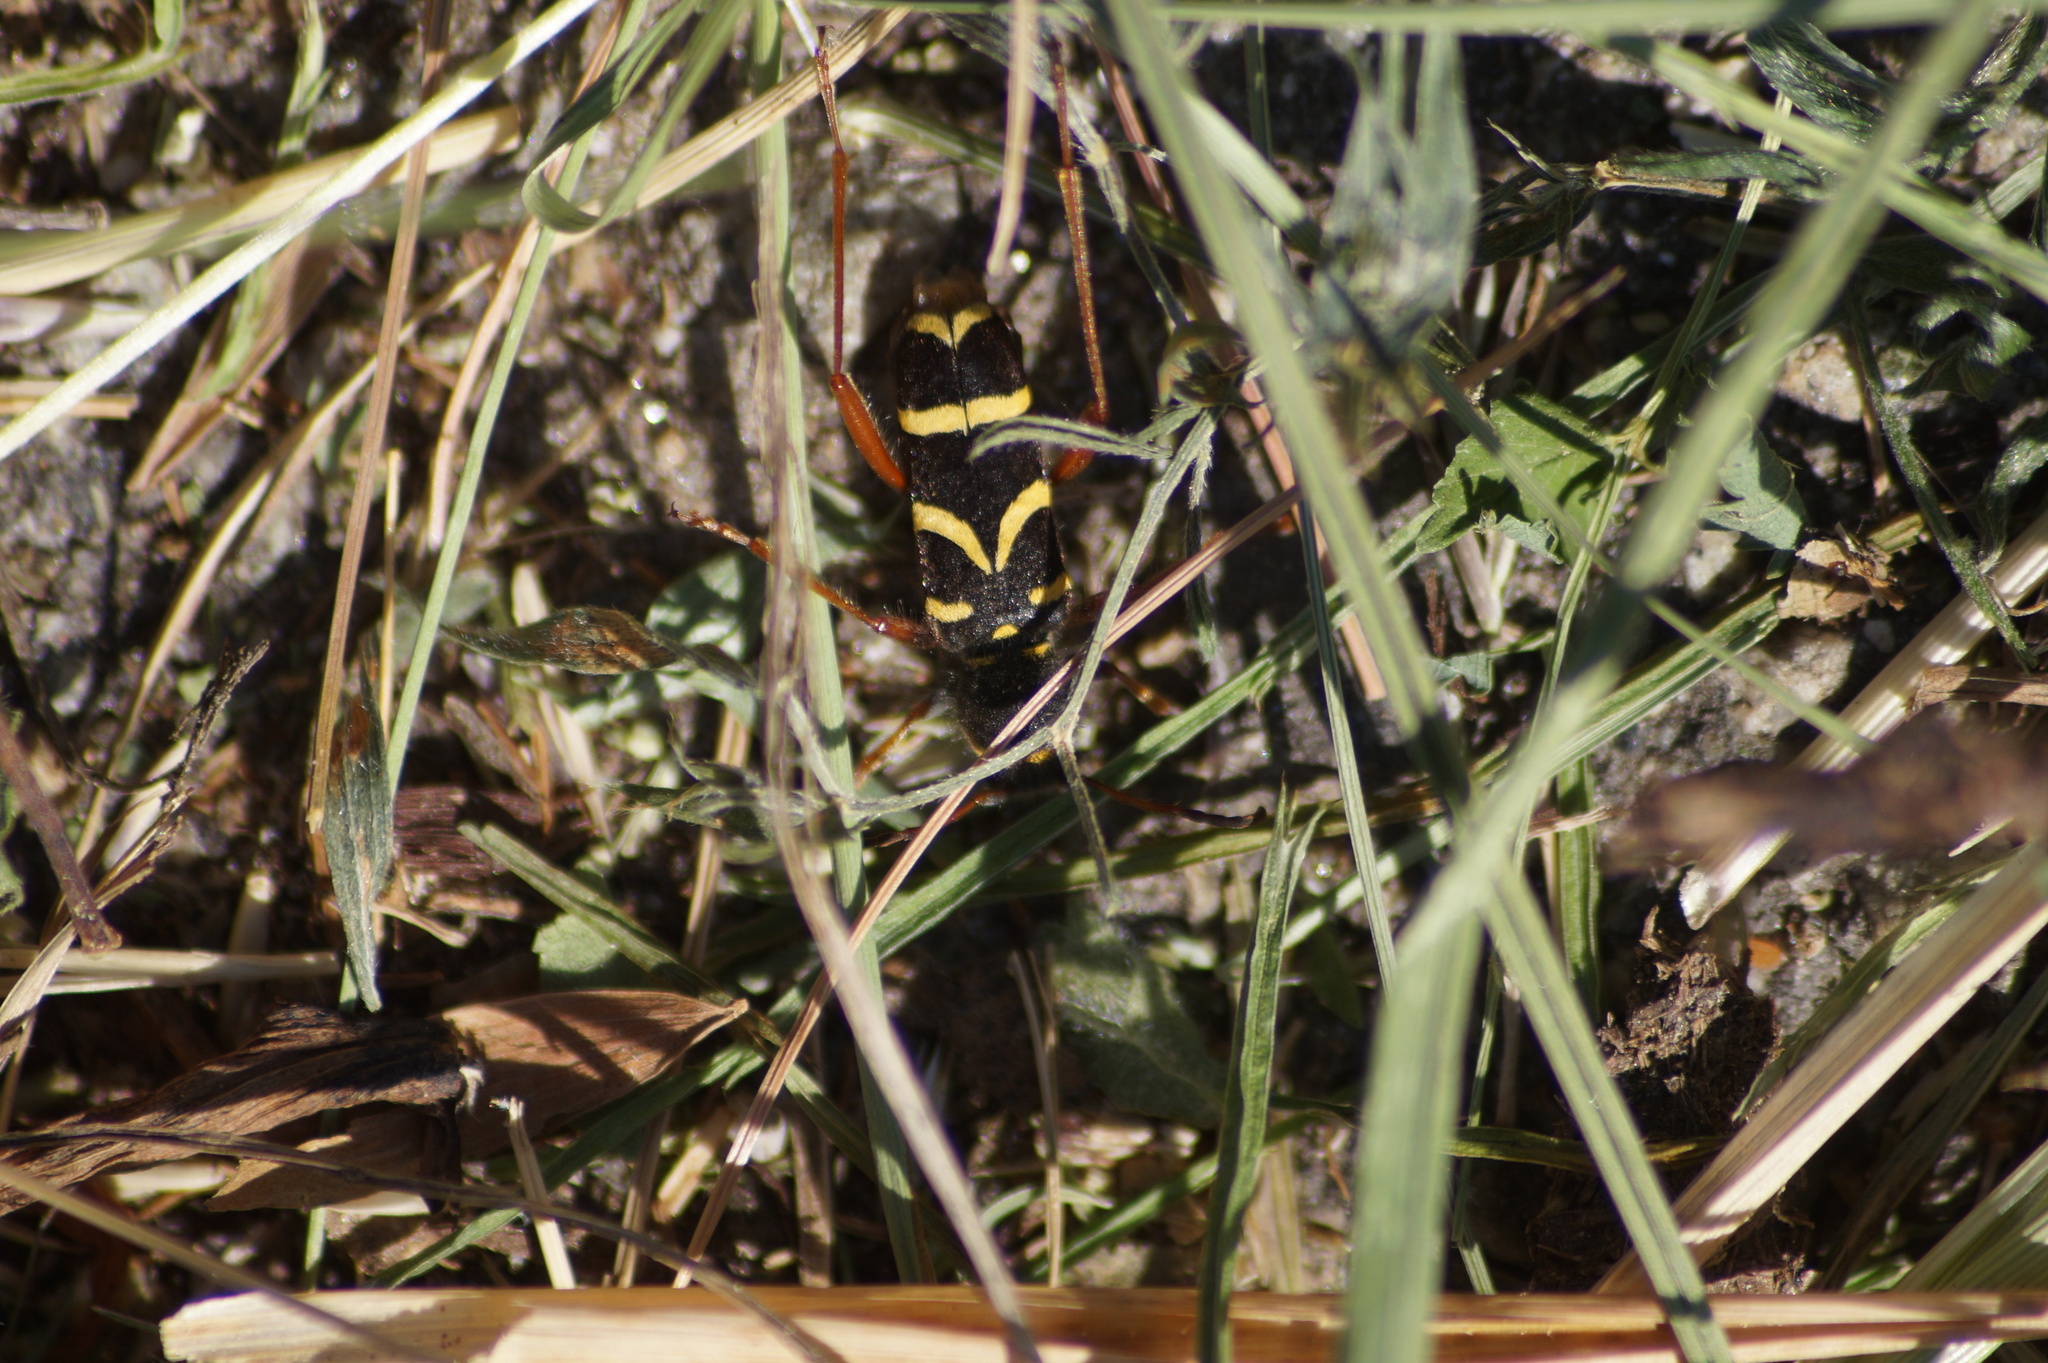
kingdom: Animalia
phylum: Arthropoda
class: Insecta
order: Coleoptera
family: Cerambycidae
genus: Clytus
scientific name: Clytus arietis
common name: Wasp beetle
